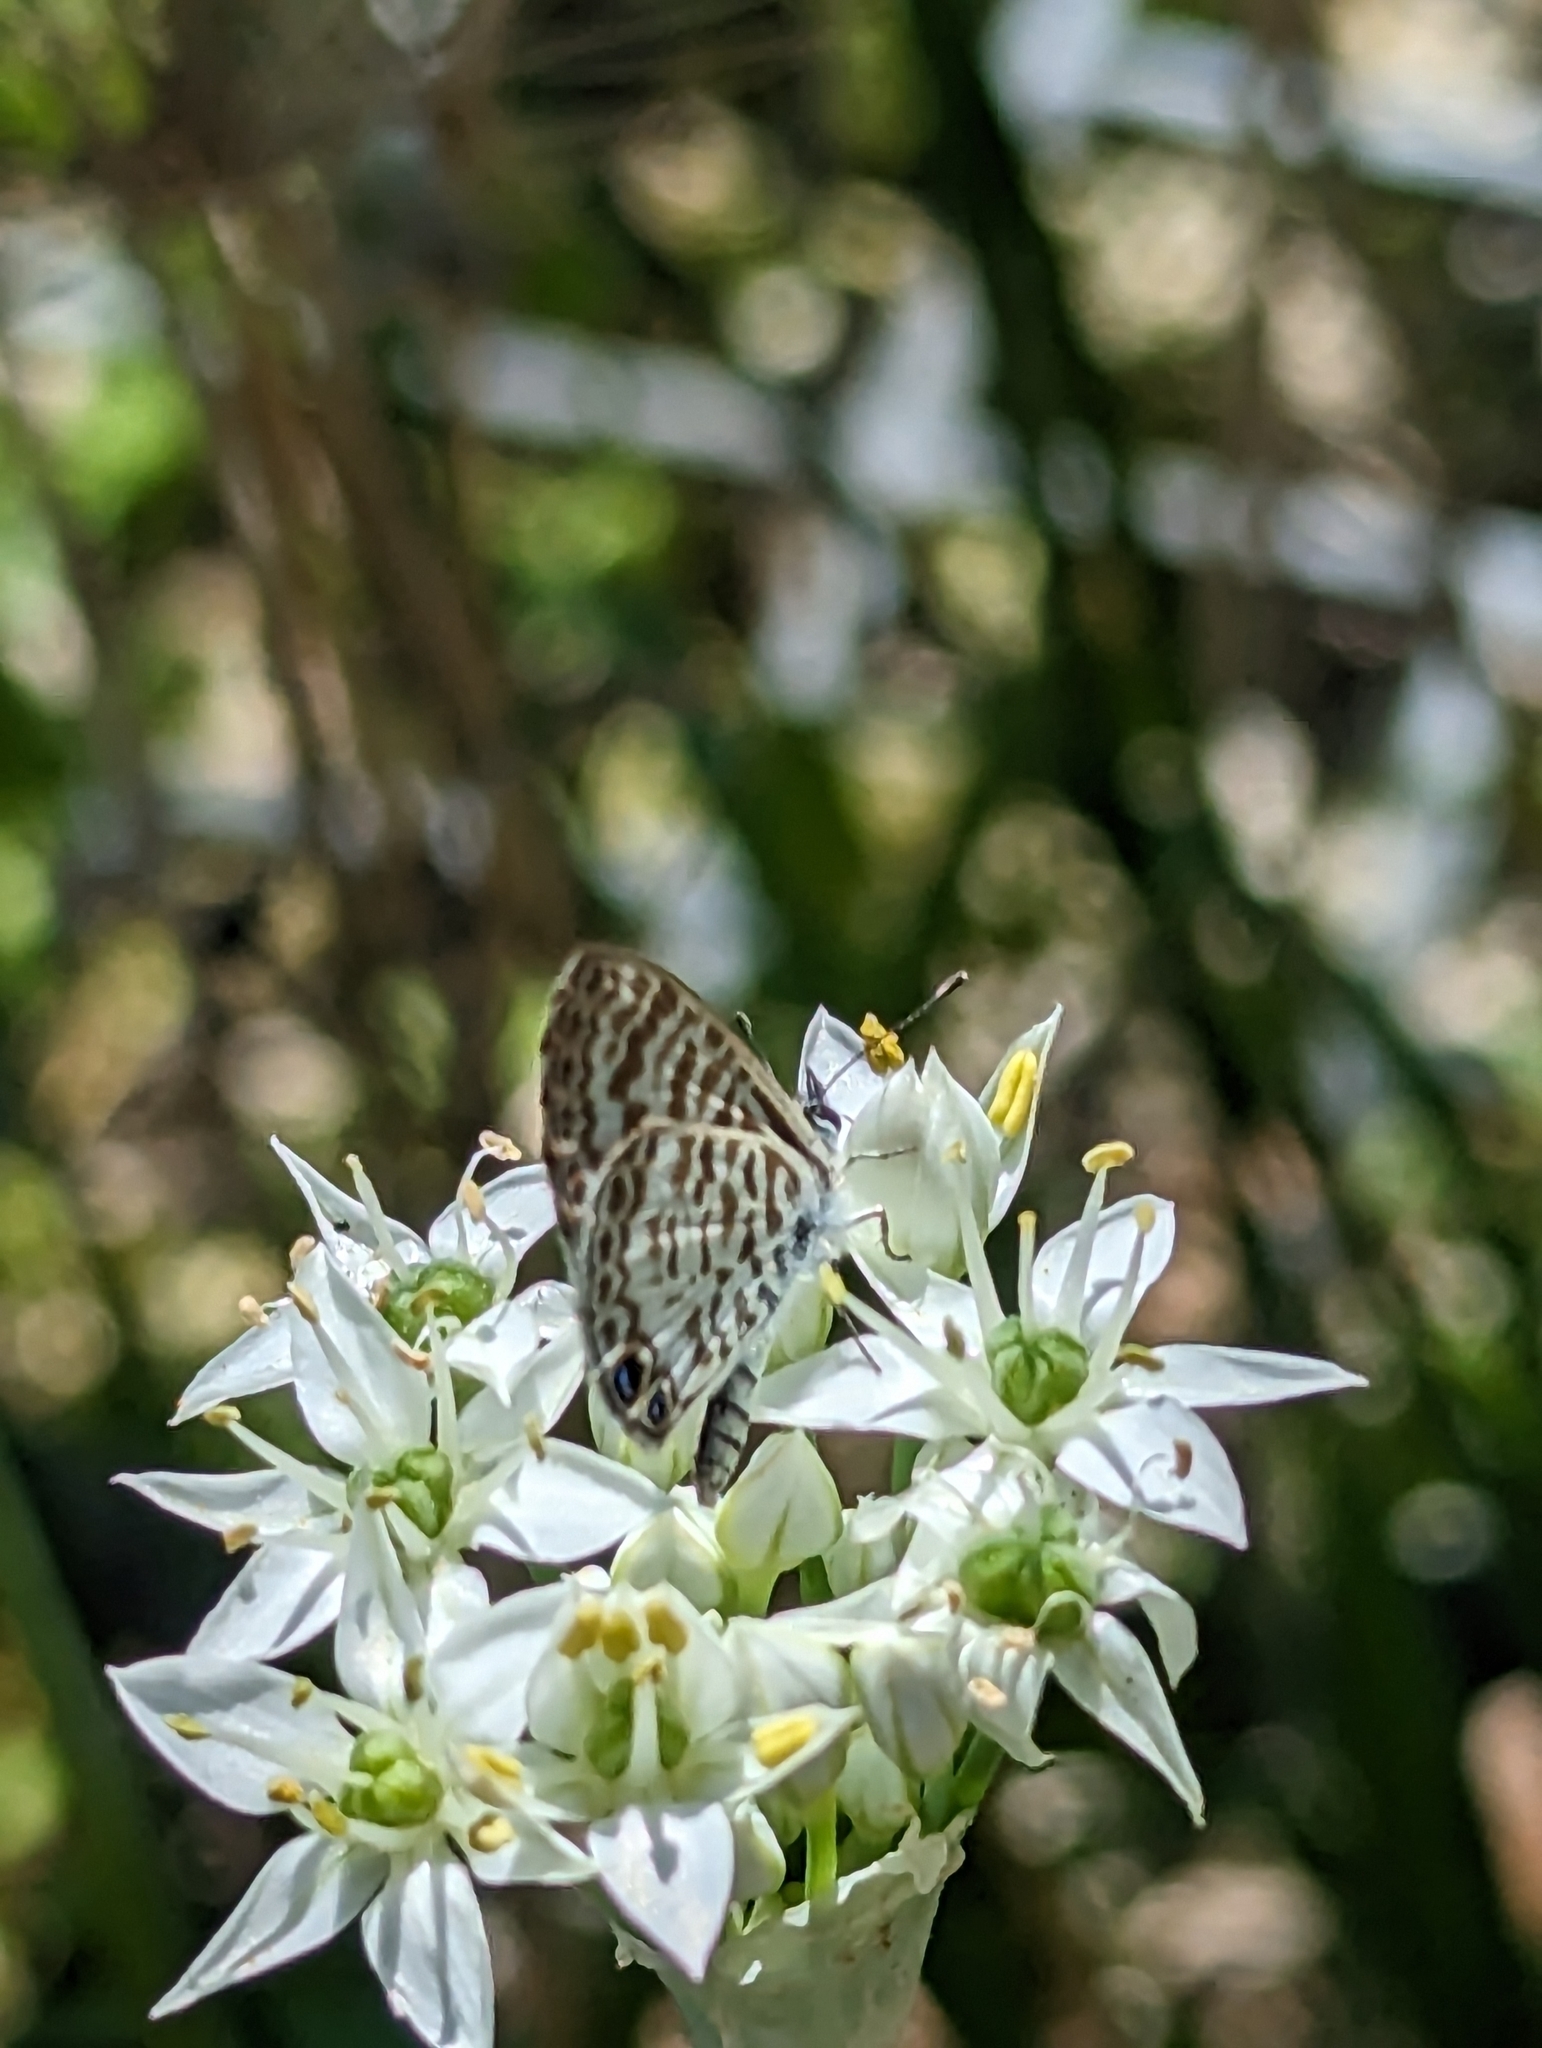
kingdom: Animalia
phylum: Arthropoda
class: Insecta
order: Lepidoptera
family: Lycaenidae
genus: Leptotes
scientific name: Leptotes cassius
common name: Cassius blue
